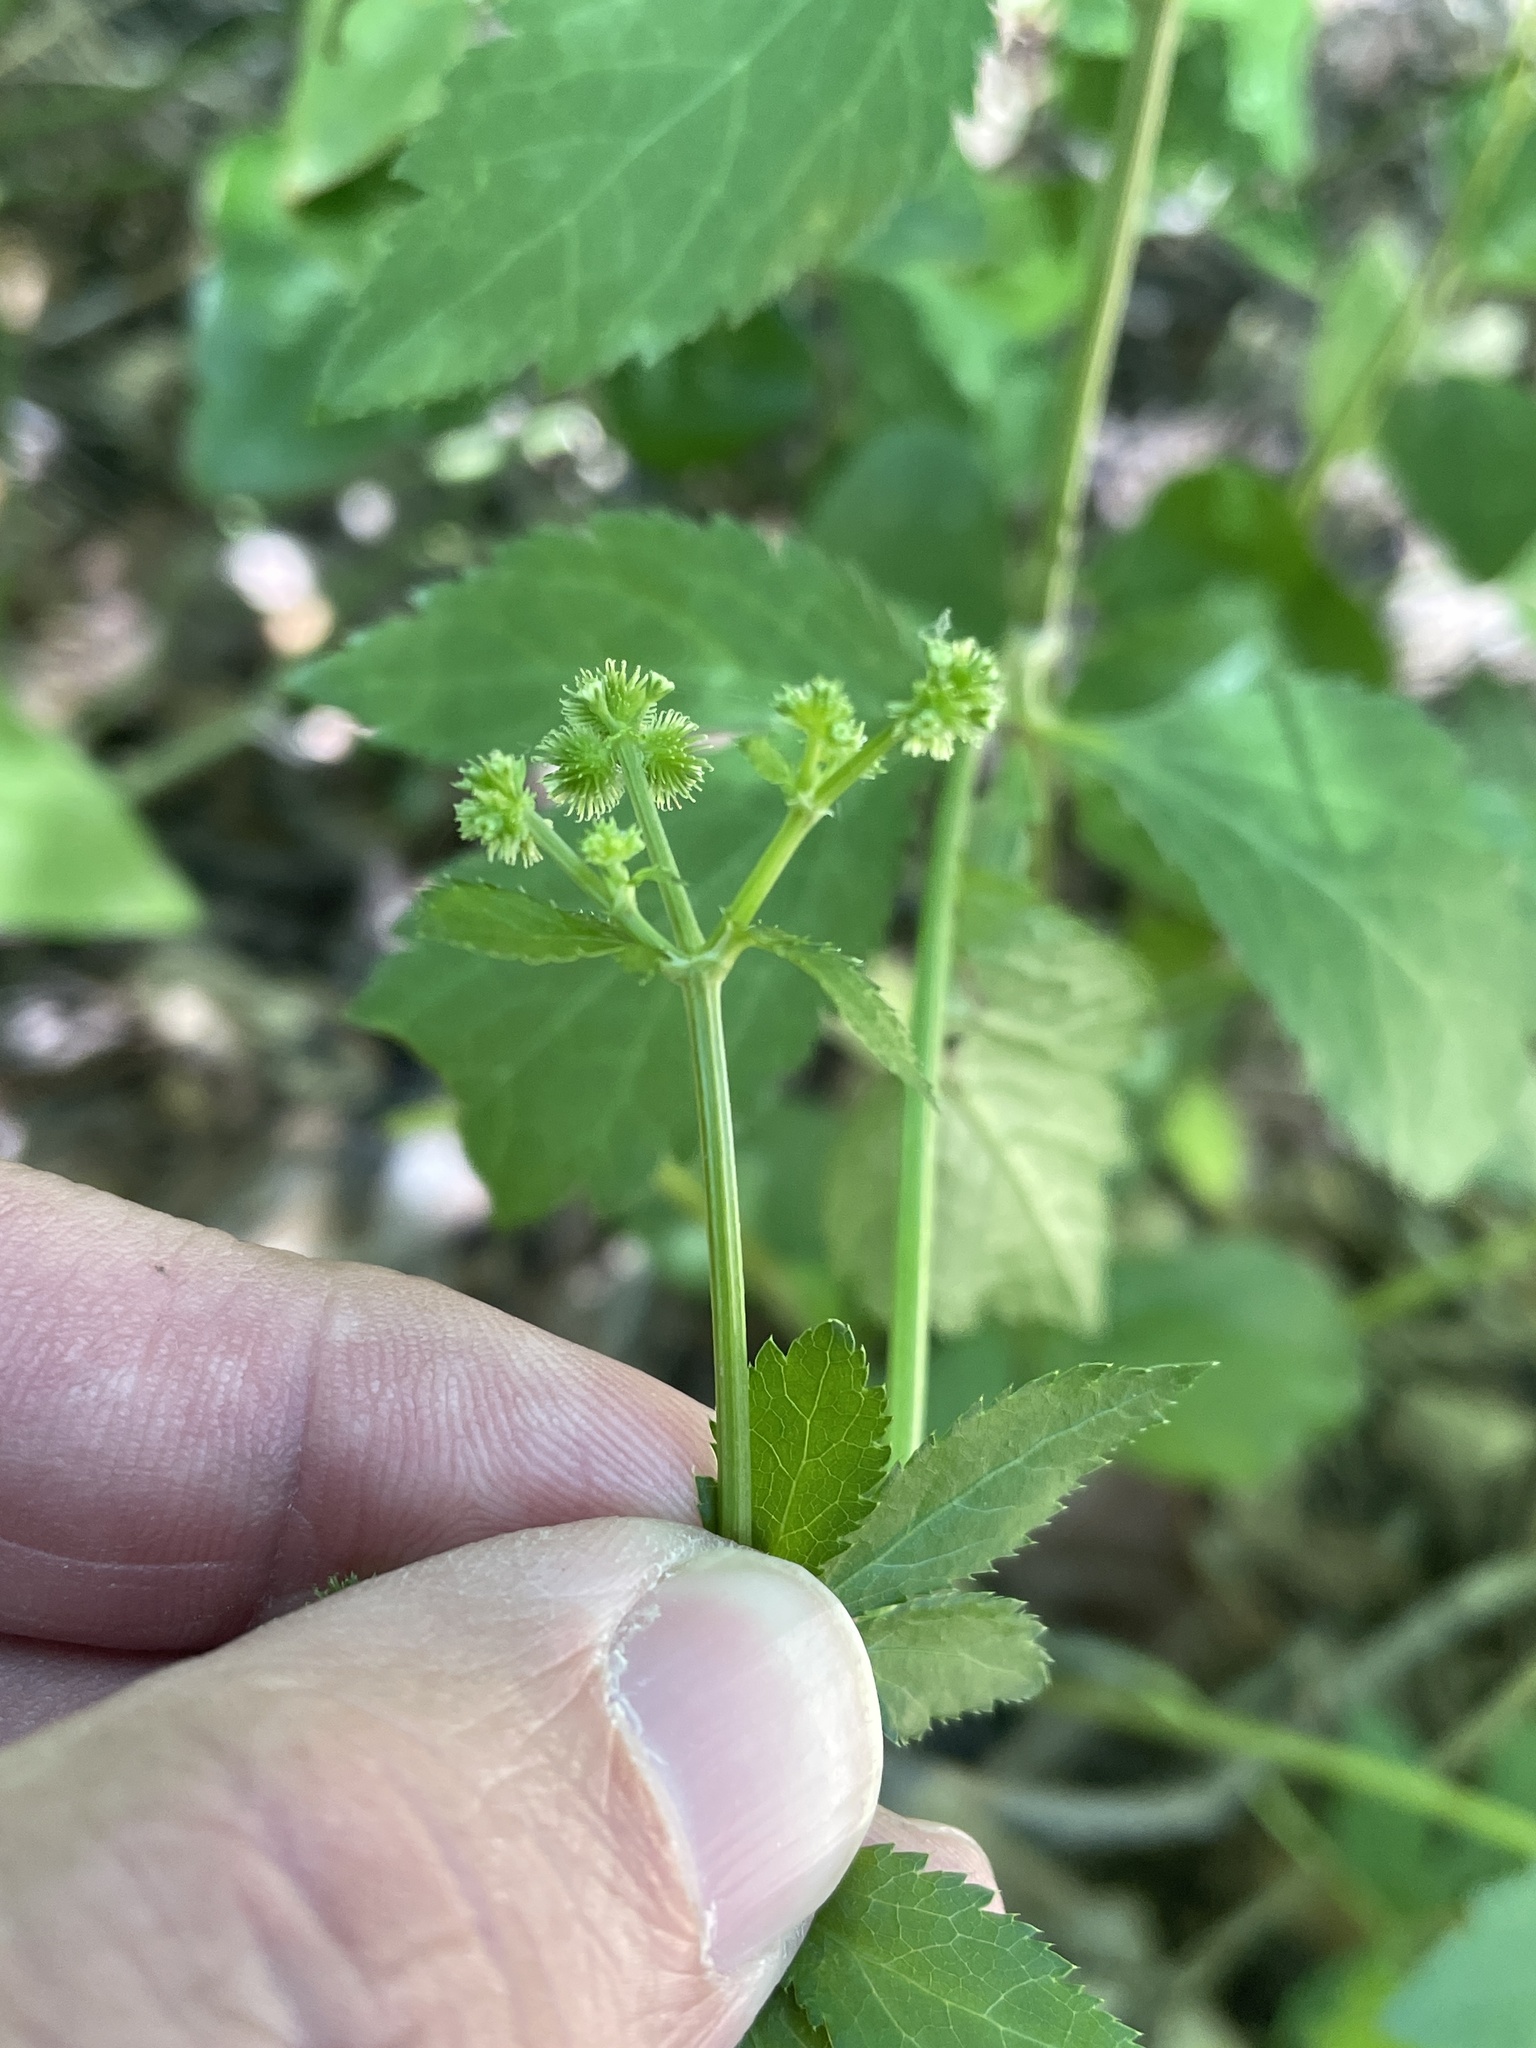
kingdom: Plantae
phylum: Tracheophyta
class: Magnoliopsida
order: Apiales
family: Apiaceae
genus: Sanicula
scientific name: Sanicula canadensis
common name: Canada sanicle
